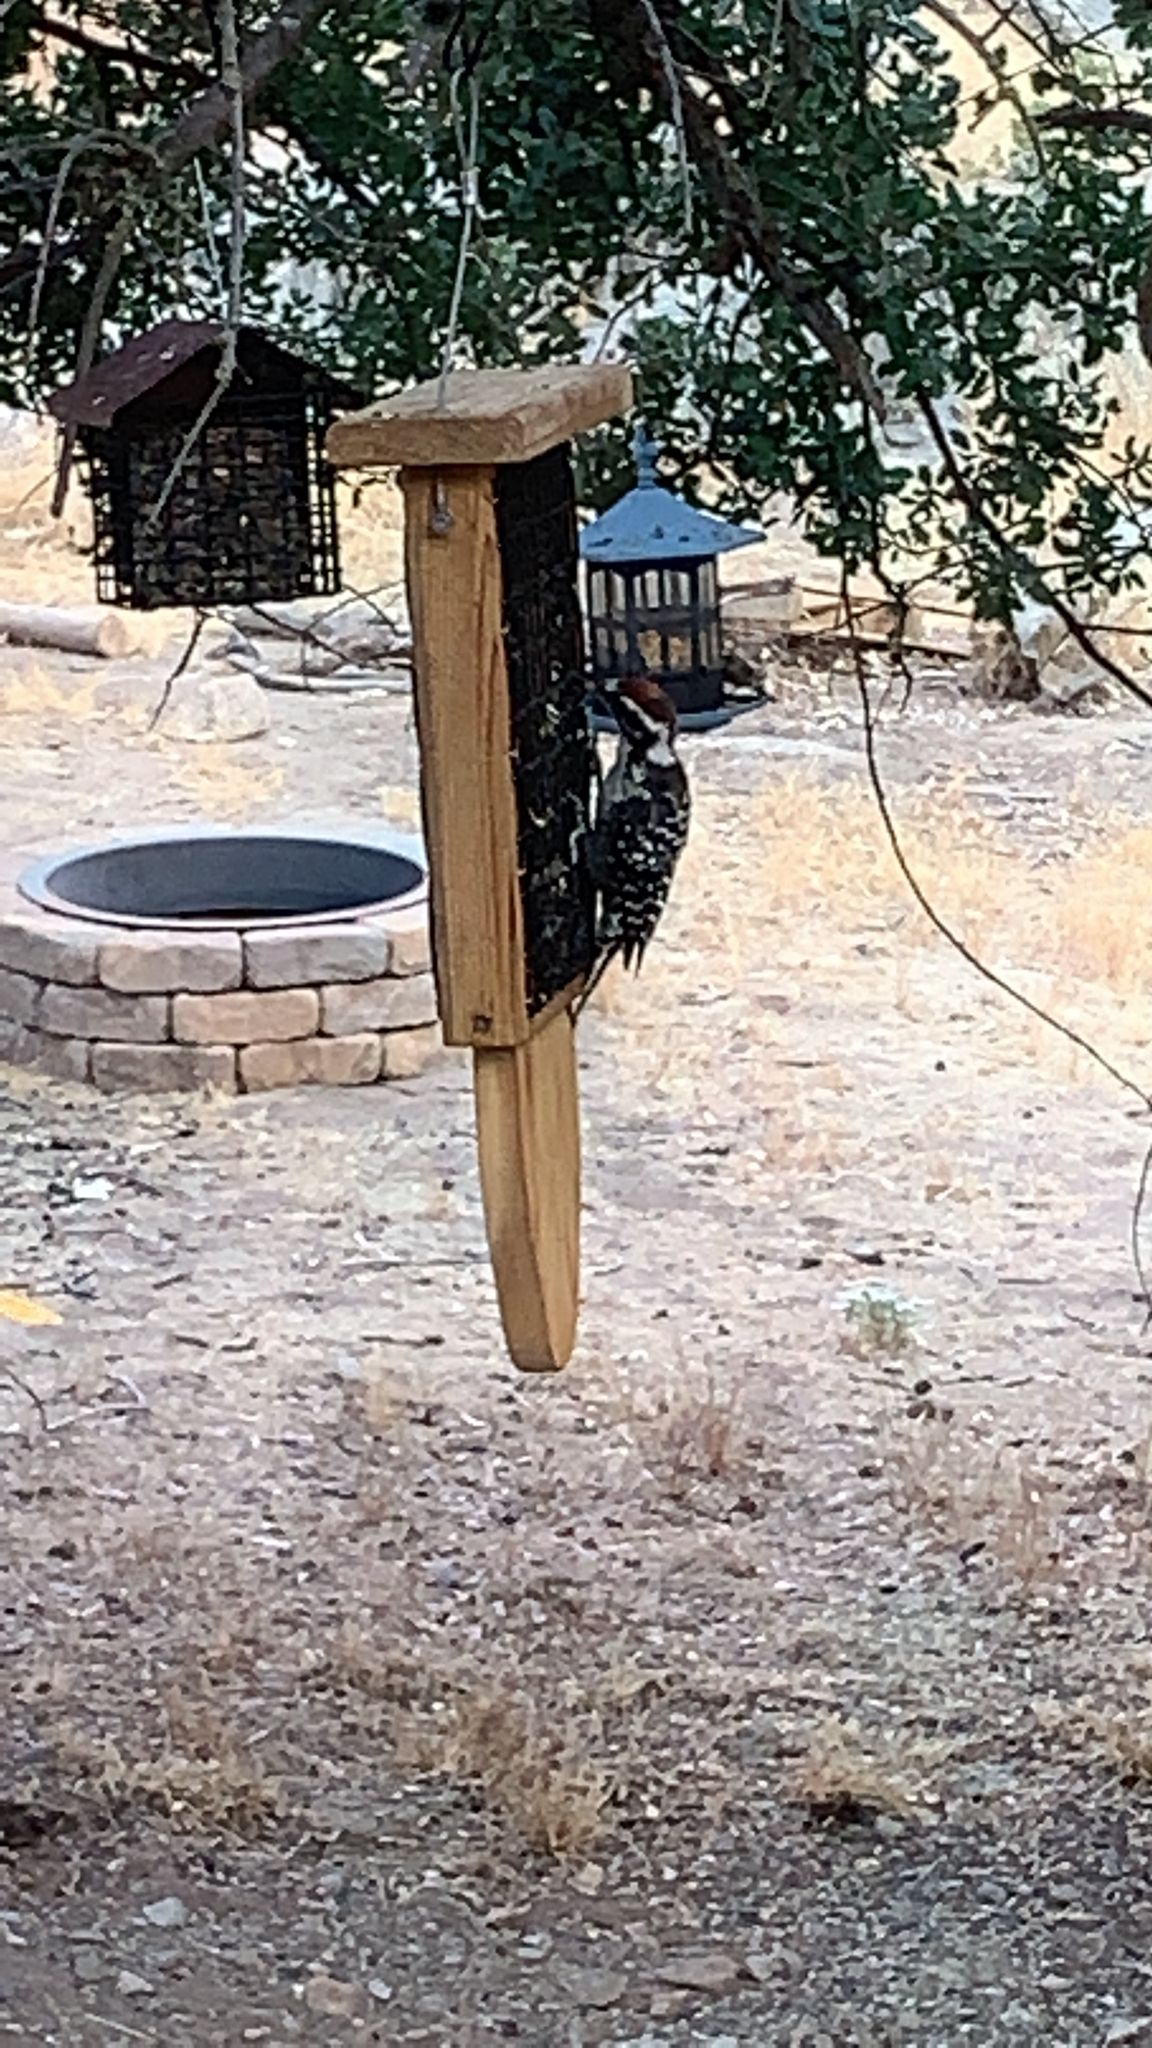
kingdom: Animalia
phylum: Chordata
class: Aves
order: Piciformes
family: Picidae
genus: Dryobates
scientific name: Dryobates nuttallii
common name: Nuttall's woodpecker
